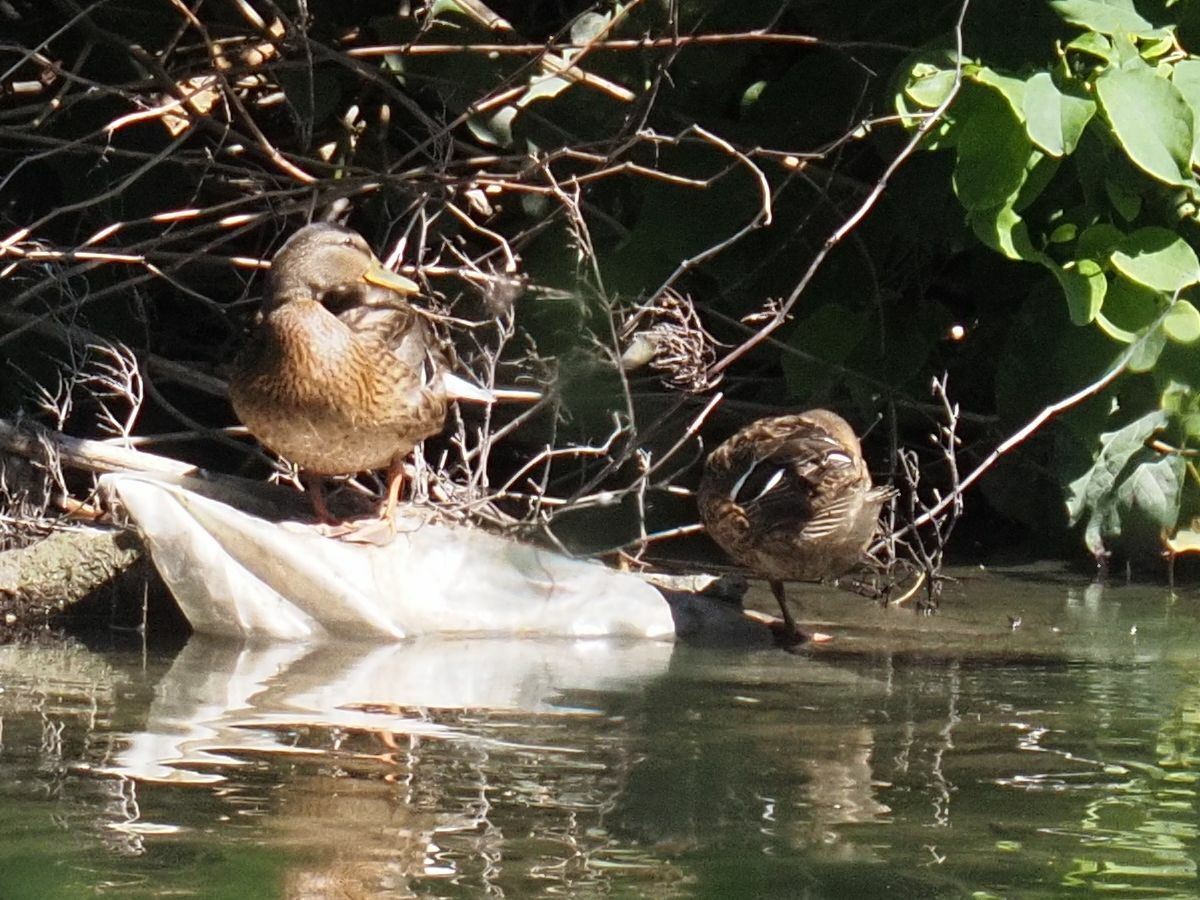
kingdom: Animalia
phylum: Chordata
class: Aves
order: Anseriformes
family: Anatidae
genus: Anas
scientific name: Anas platyrhynchos
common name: Mallard
